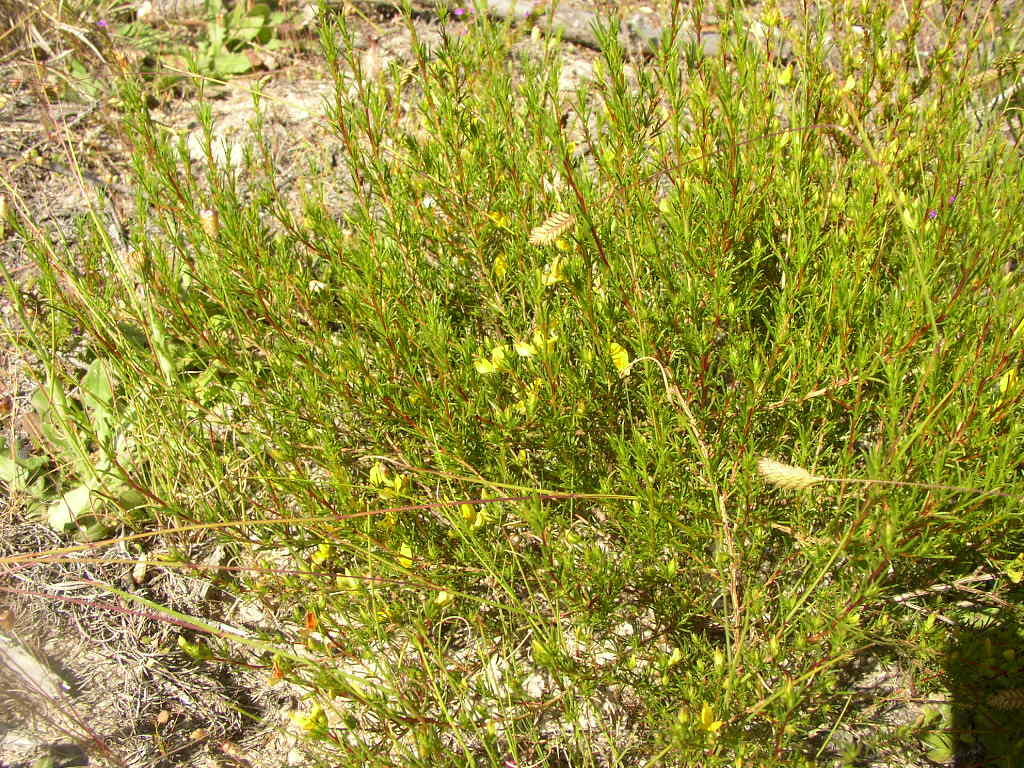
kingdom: Plantae
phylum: Tracheophyta
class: Magnoliopsida
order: Fabales
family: Fabaceae
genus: Aspalathus
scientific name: Aspalathus abietina
